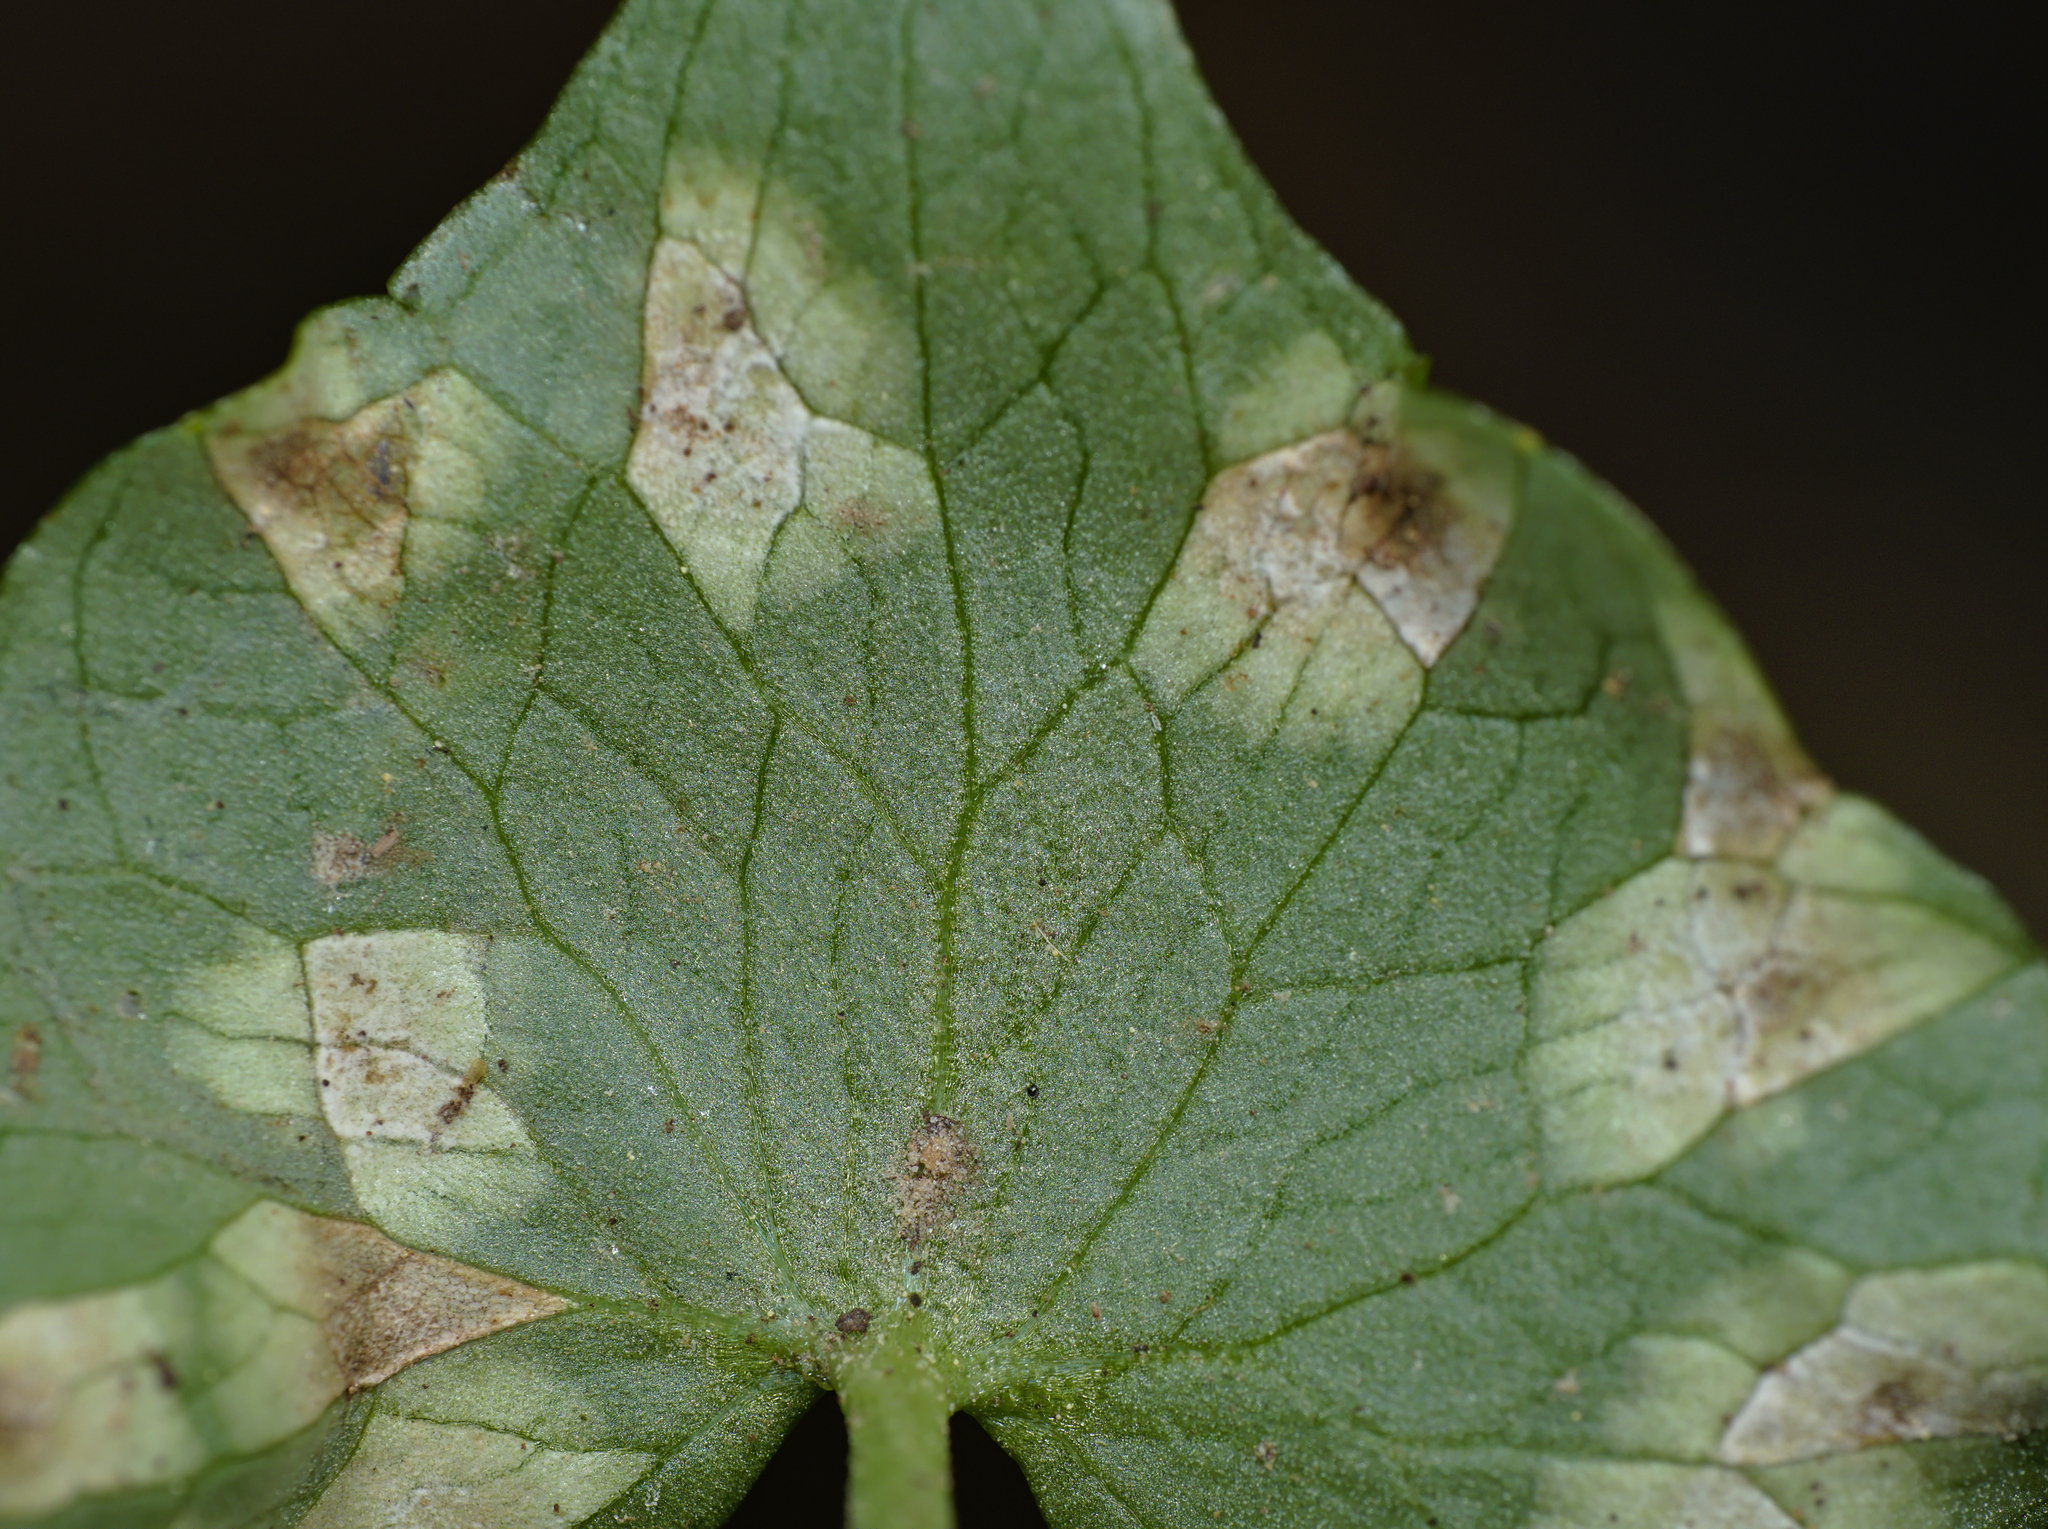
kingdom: Fungi
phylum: Basidiomycota
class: Exobasidiomycetes
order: Entylomatales
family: Entylomataceae
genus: Entyloma
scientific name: Entyloma ficariae
